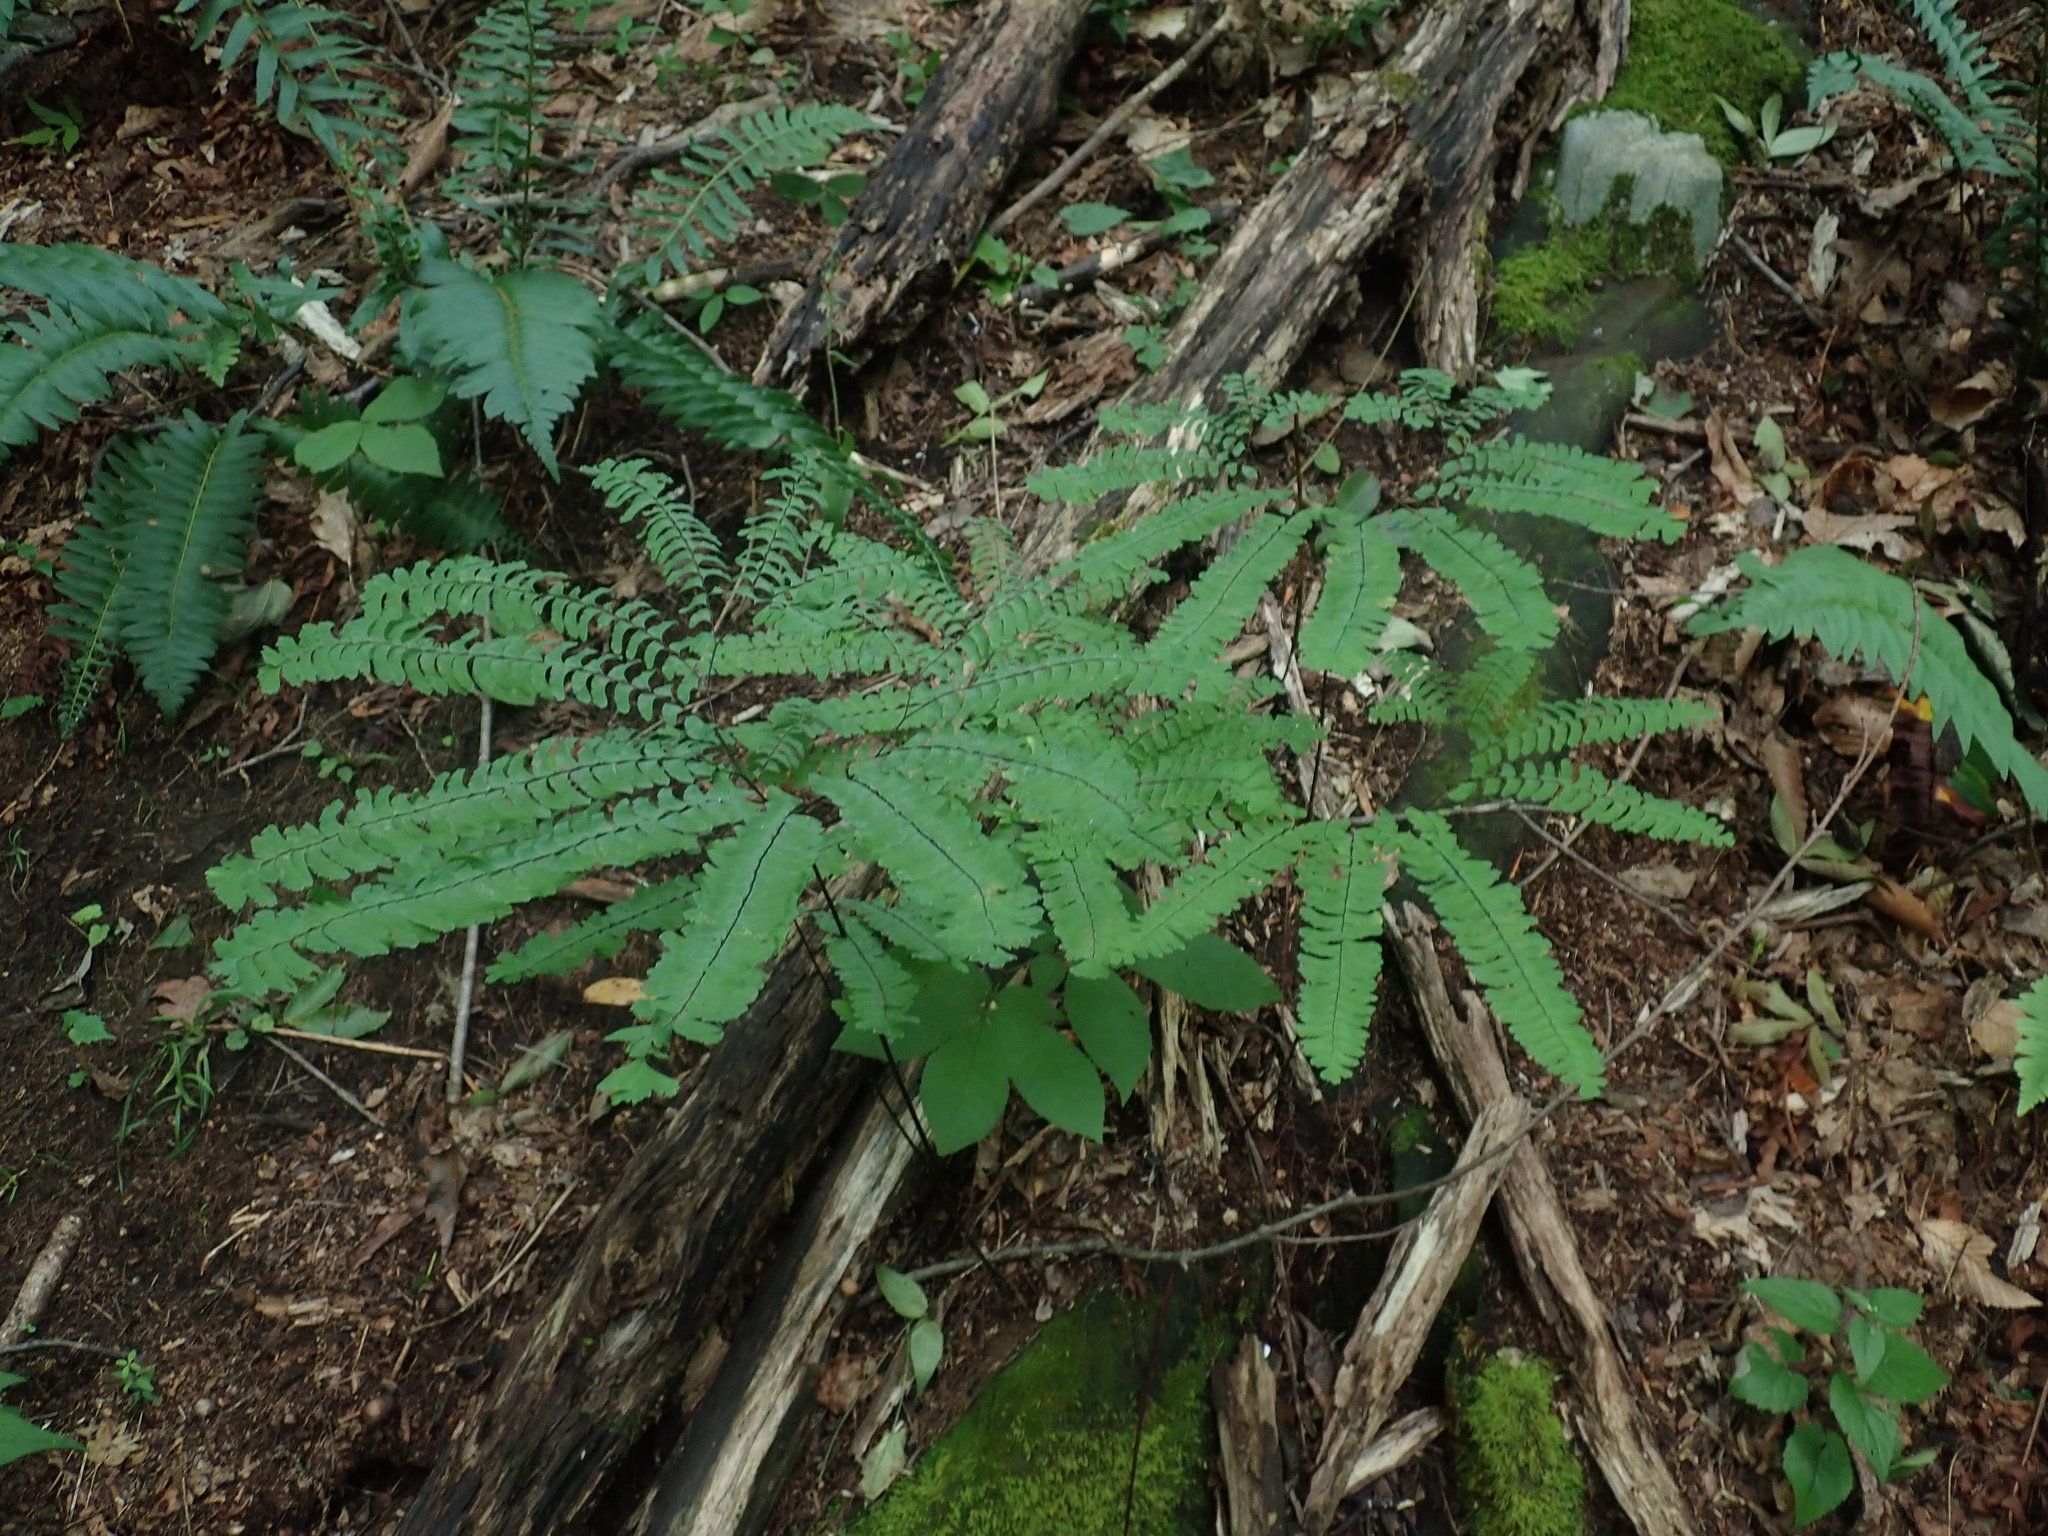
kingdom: Plantae
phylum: Tracheophyta
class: Polypodiopsida
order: Polypodiales
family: Pteridaceae
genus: Adiantum
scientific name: Adiantum pedatum
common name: Five-finger fern
